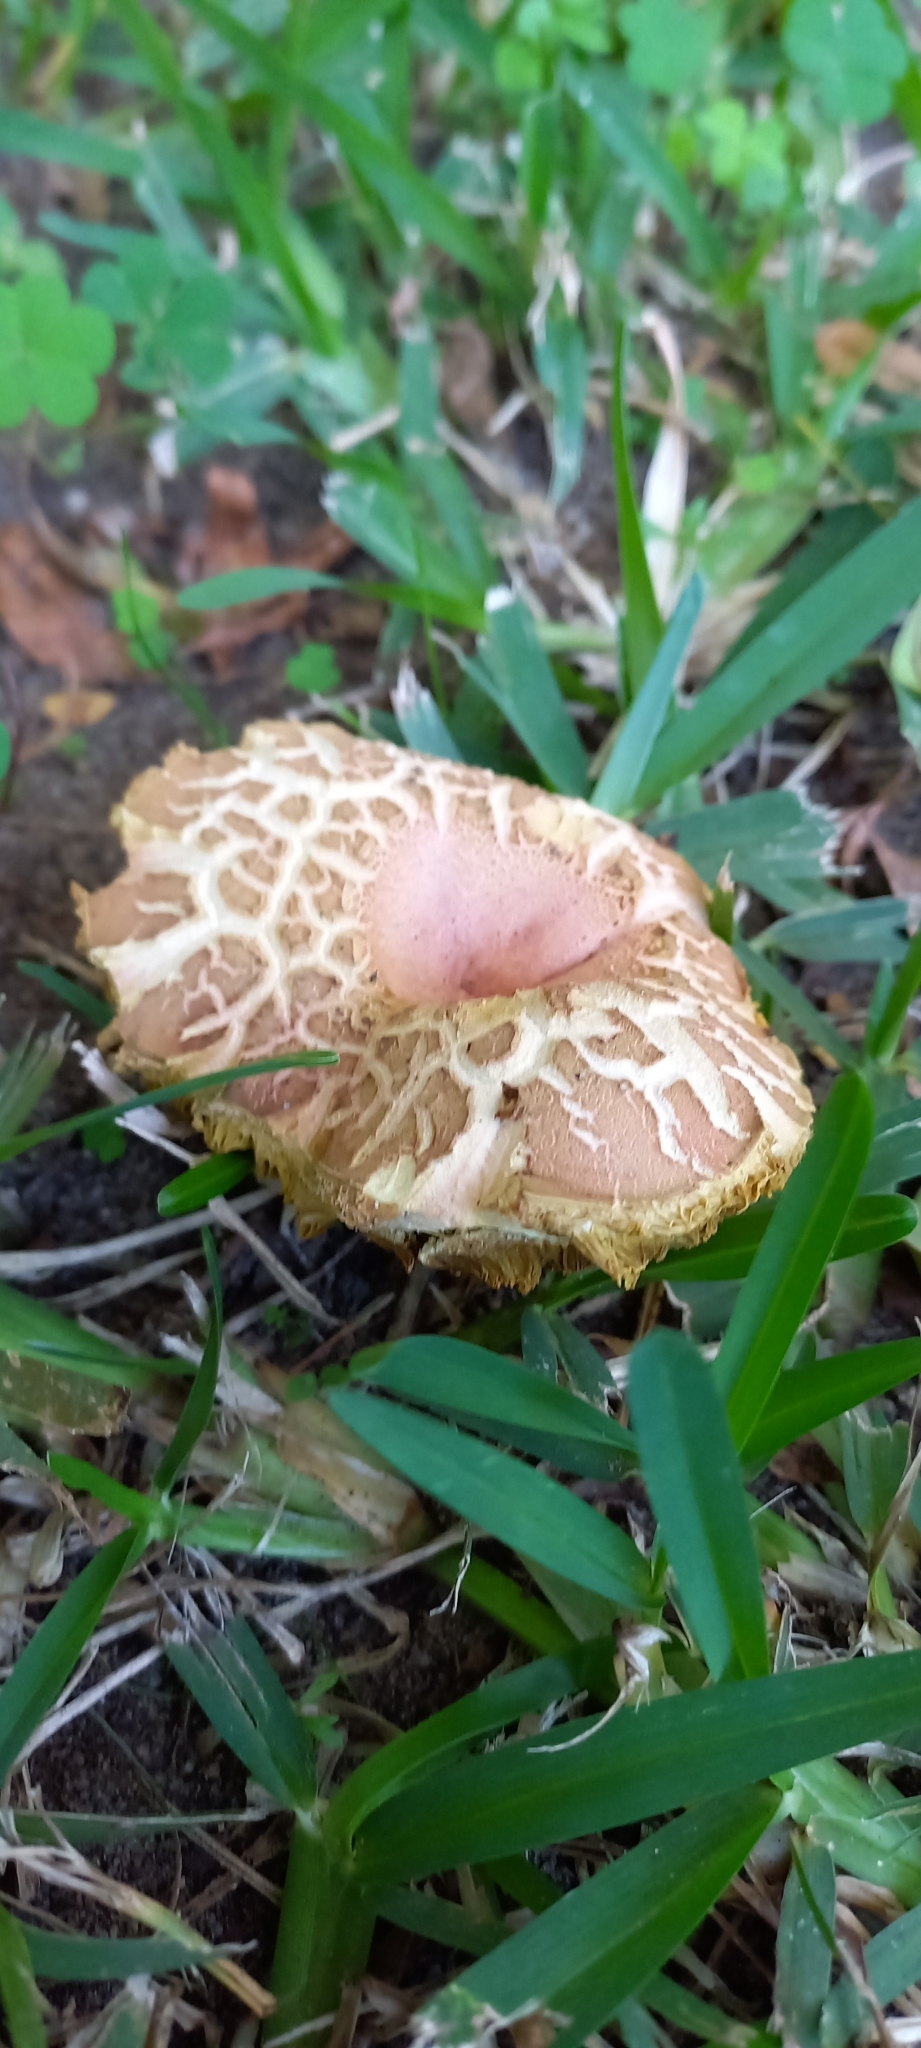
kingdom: Fungi
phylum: Basidiomycota
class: Agaricomycetes
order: Boletales
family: Boletaceae
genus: Xerocomellus
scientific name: Xerocomellus chrysenteron
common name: Red-cracking bolete
